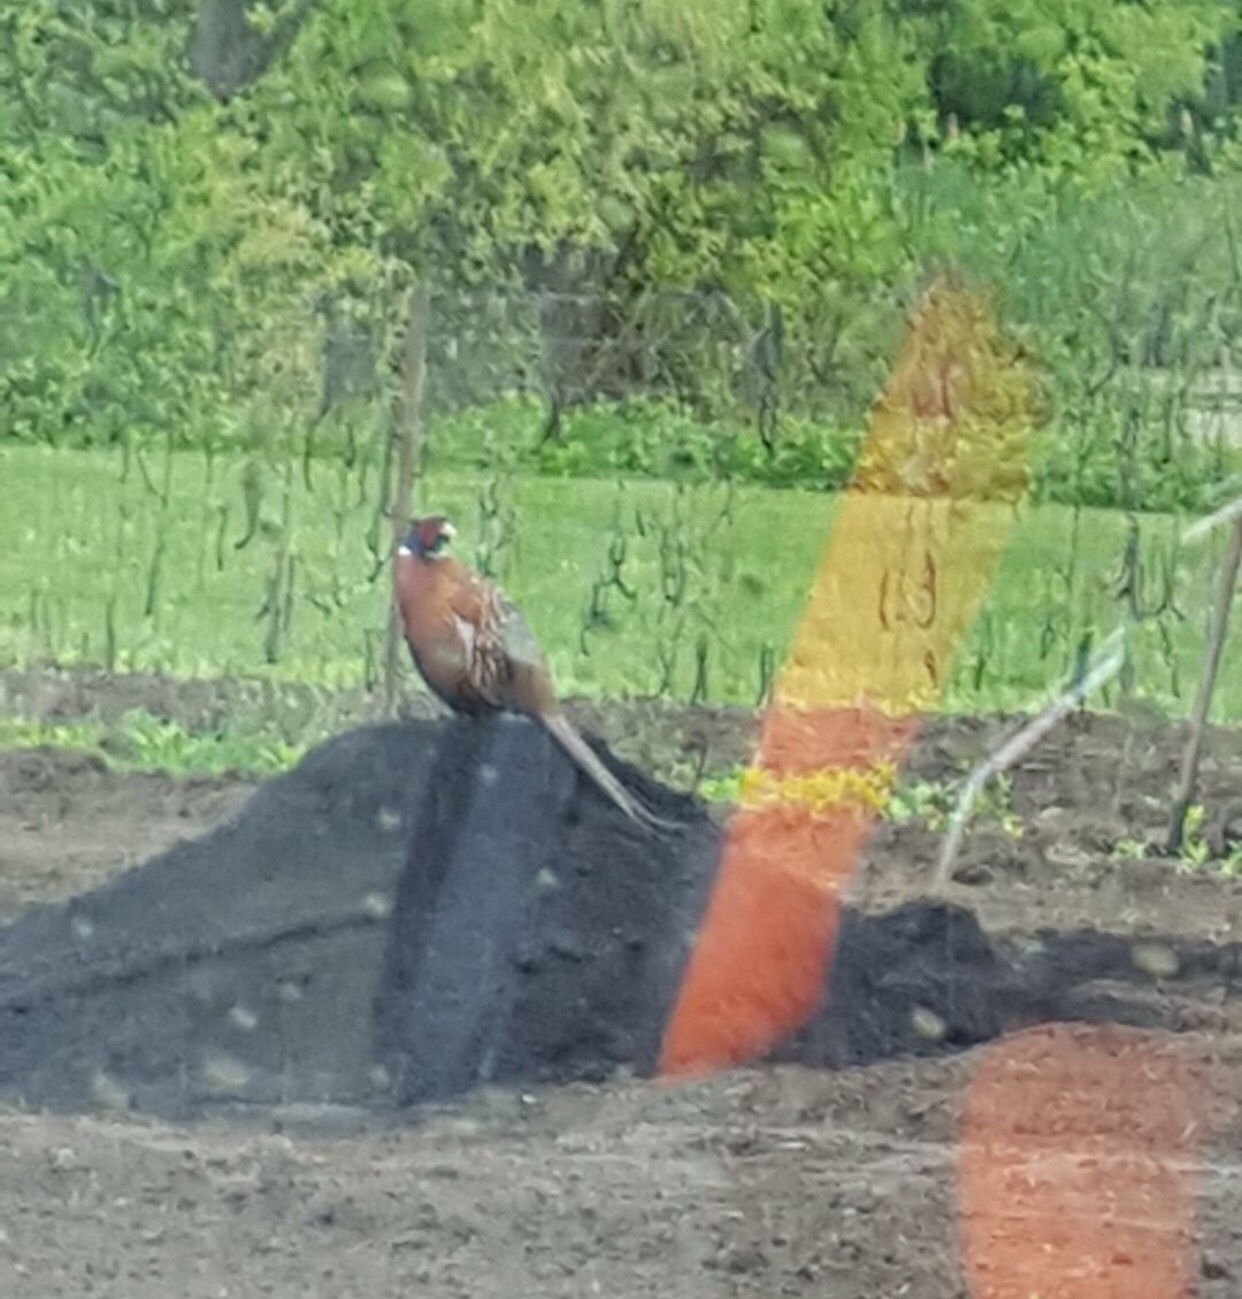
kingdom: Animalia
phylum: Chordata
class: Aves
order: Galliformes
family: Phasianidae
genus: Phasianus
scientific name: Phasianus colchicus
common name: Common pheasant
